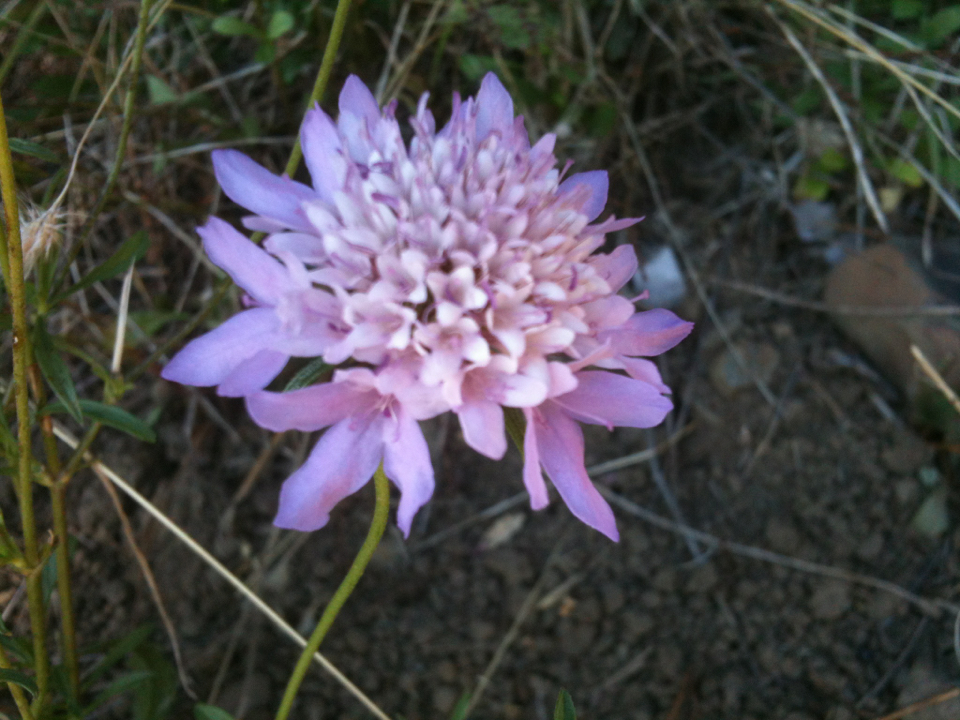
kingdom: Plantae
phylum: Tracheophyta
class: Magnoliopsida
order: Dipsacales
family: Caprifoliaceae
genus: Sixalix
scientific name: Sixalix atropurpurea
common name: Sweet scabious
